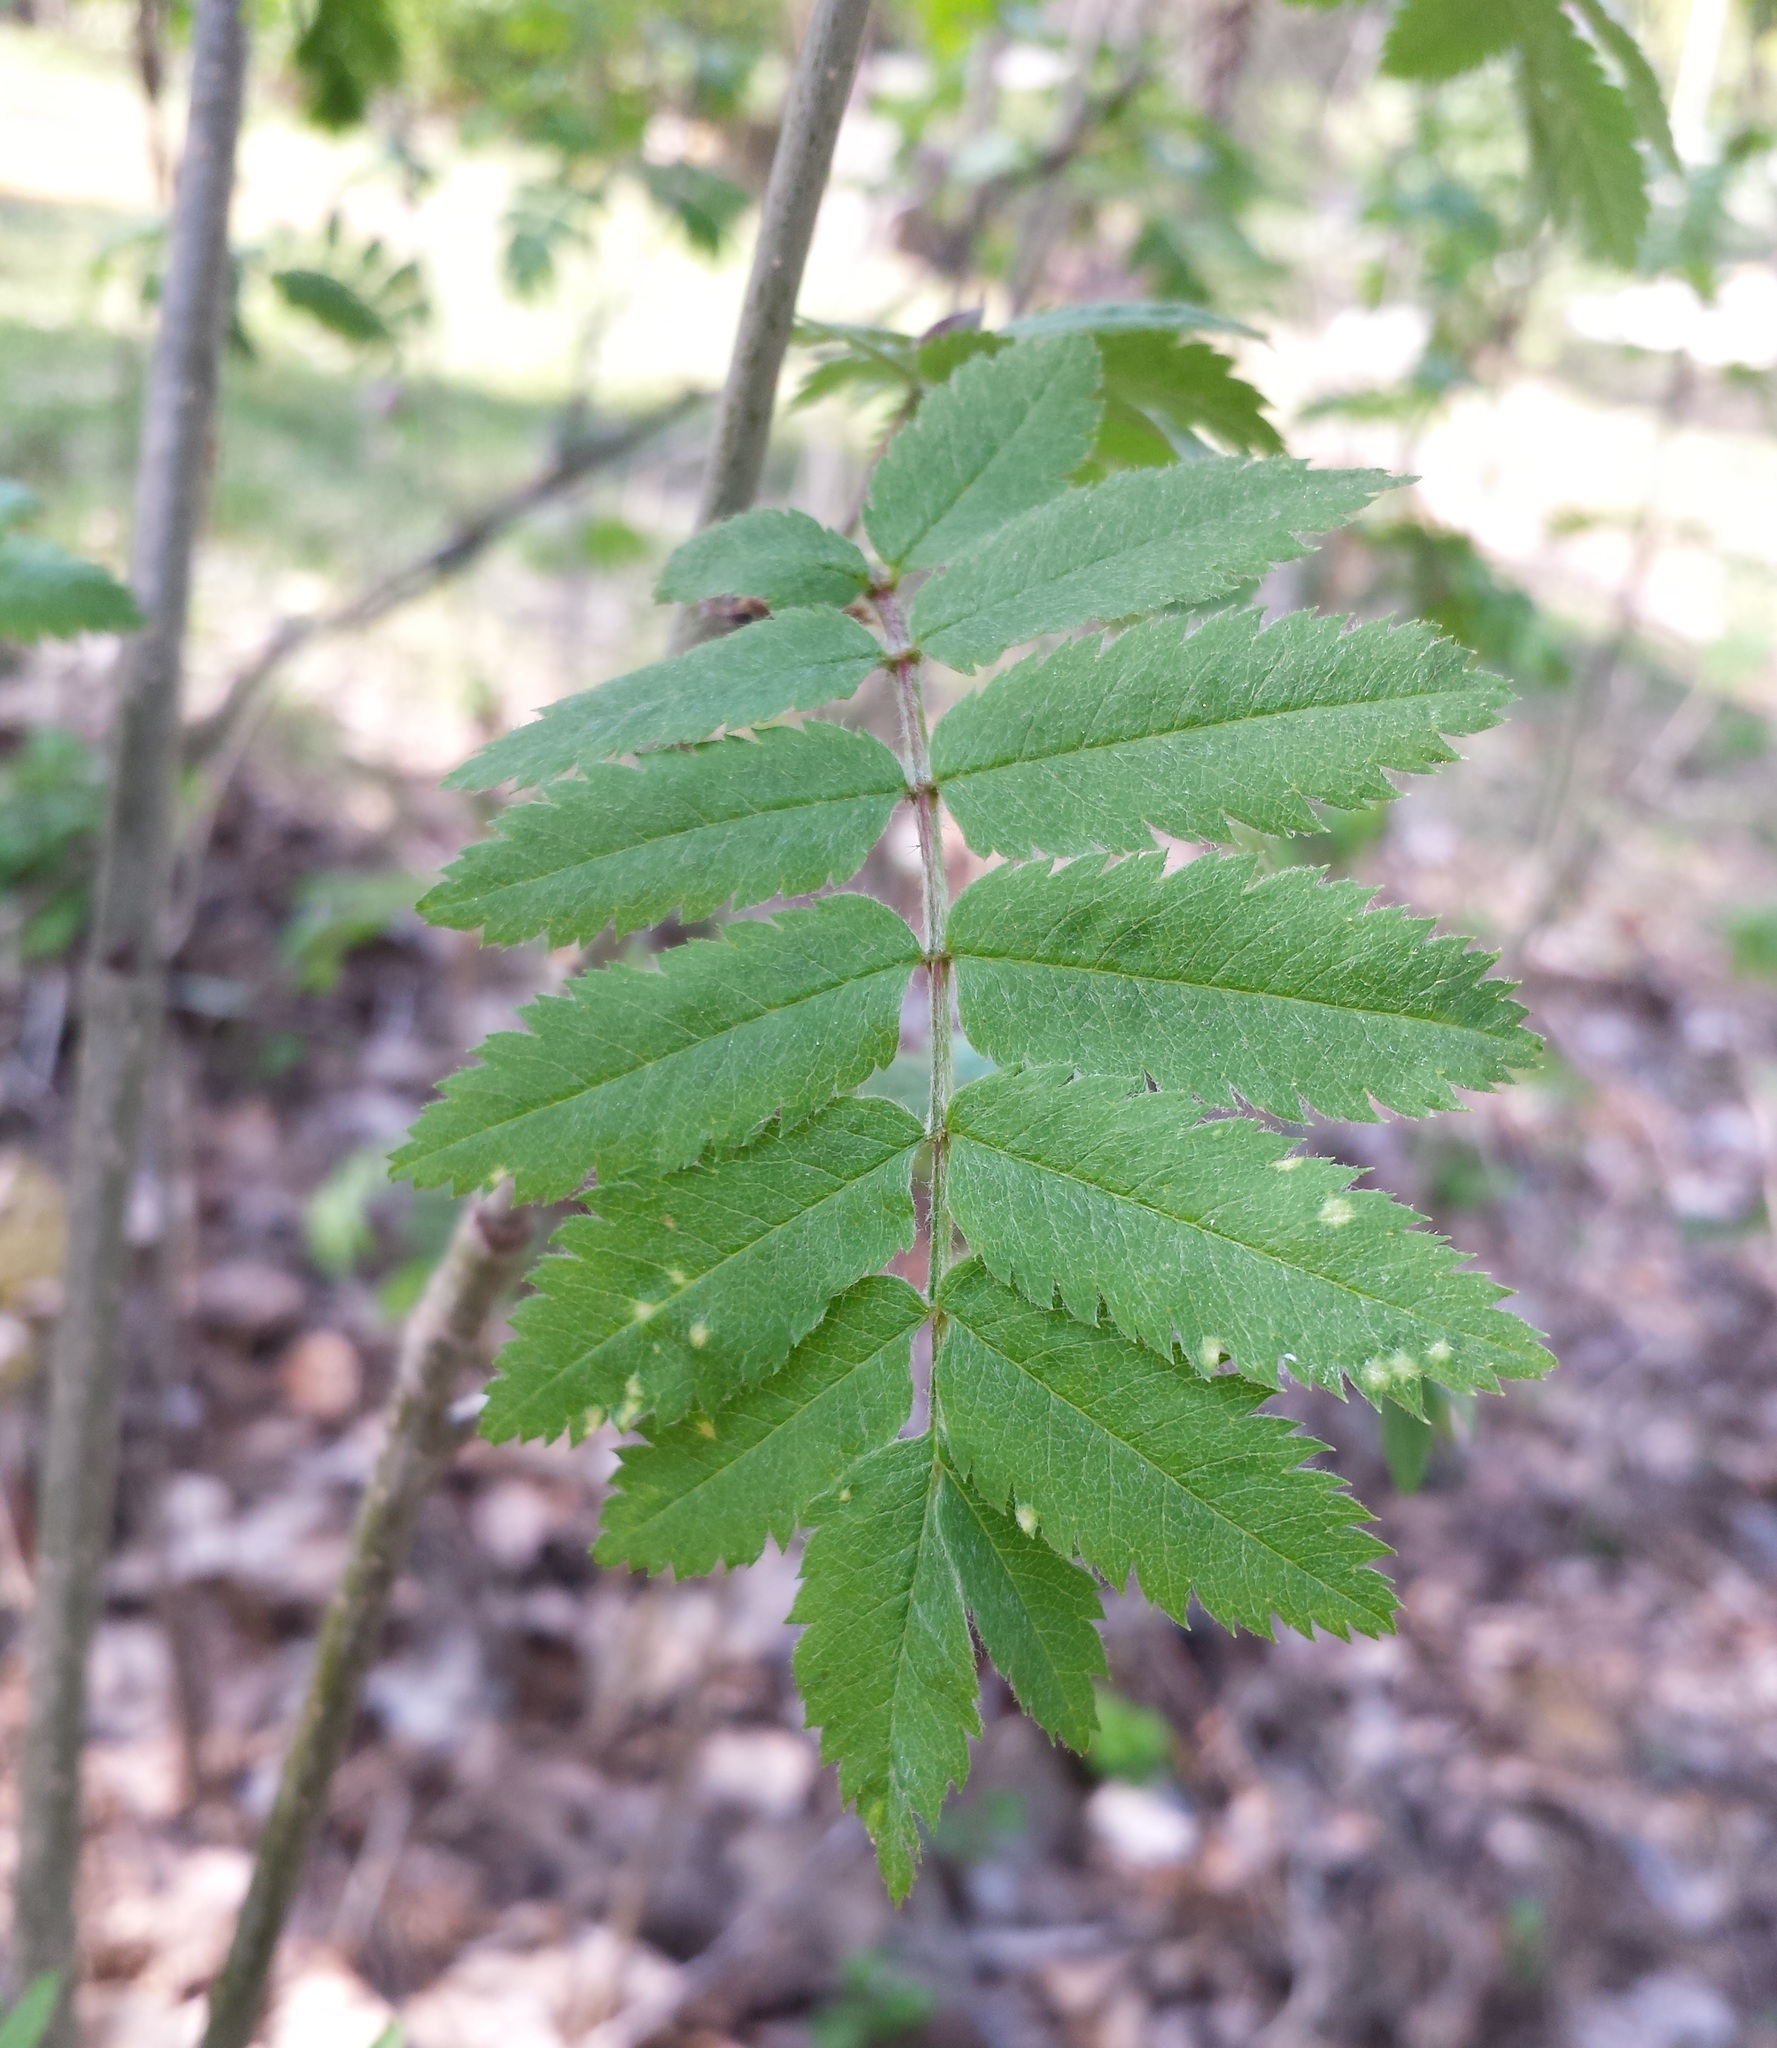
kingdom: Plantae
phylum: Tracheophyta
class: Magnoliopsida
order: Rosales
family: Rosaceae
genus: Sorbus
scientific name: Sorbus aucuparia
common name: Rowan
